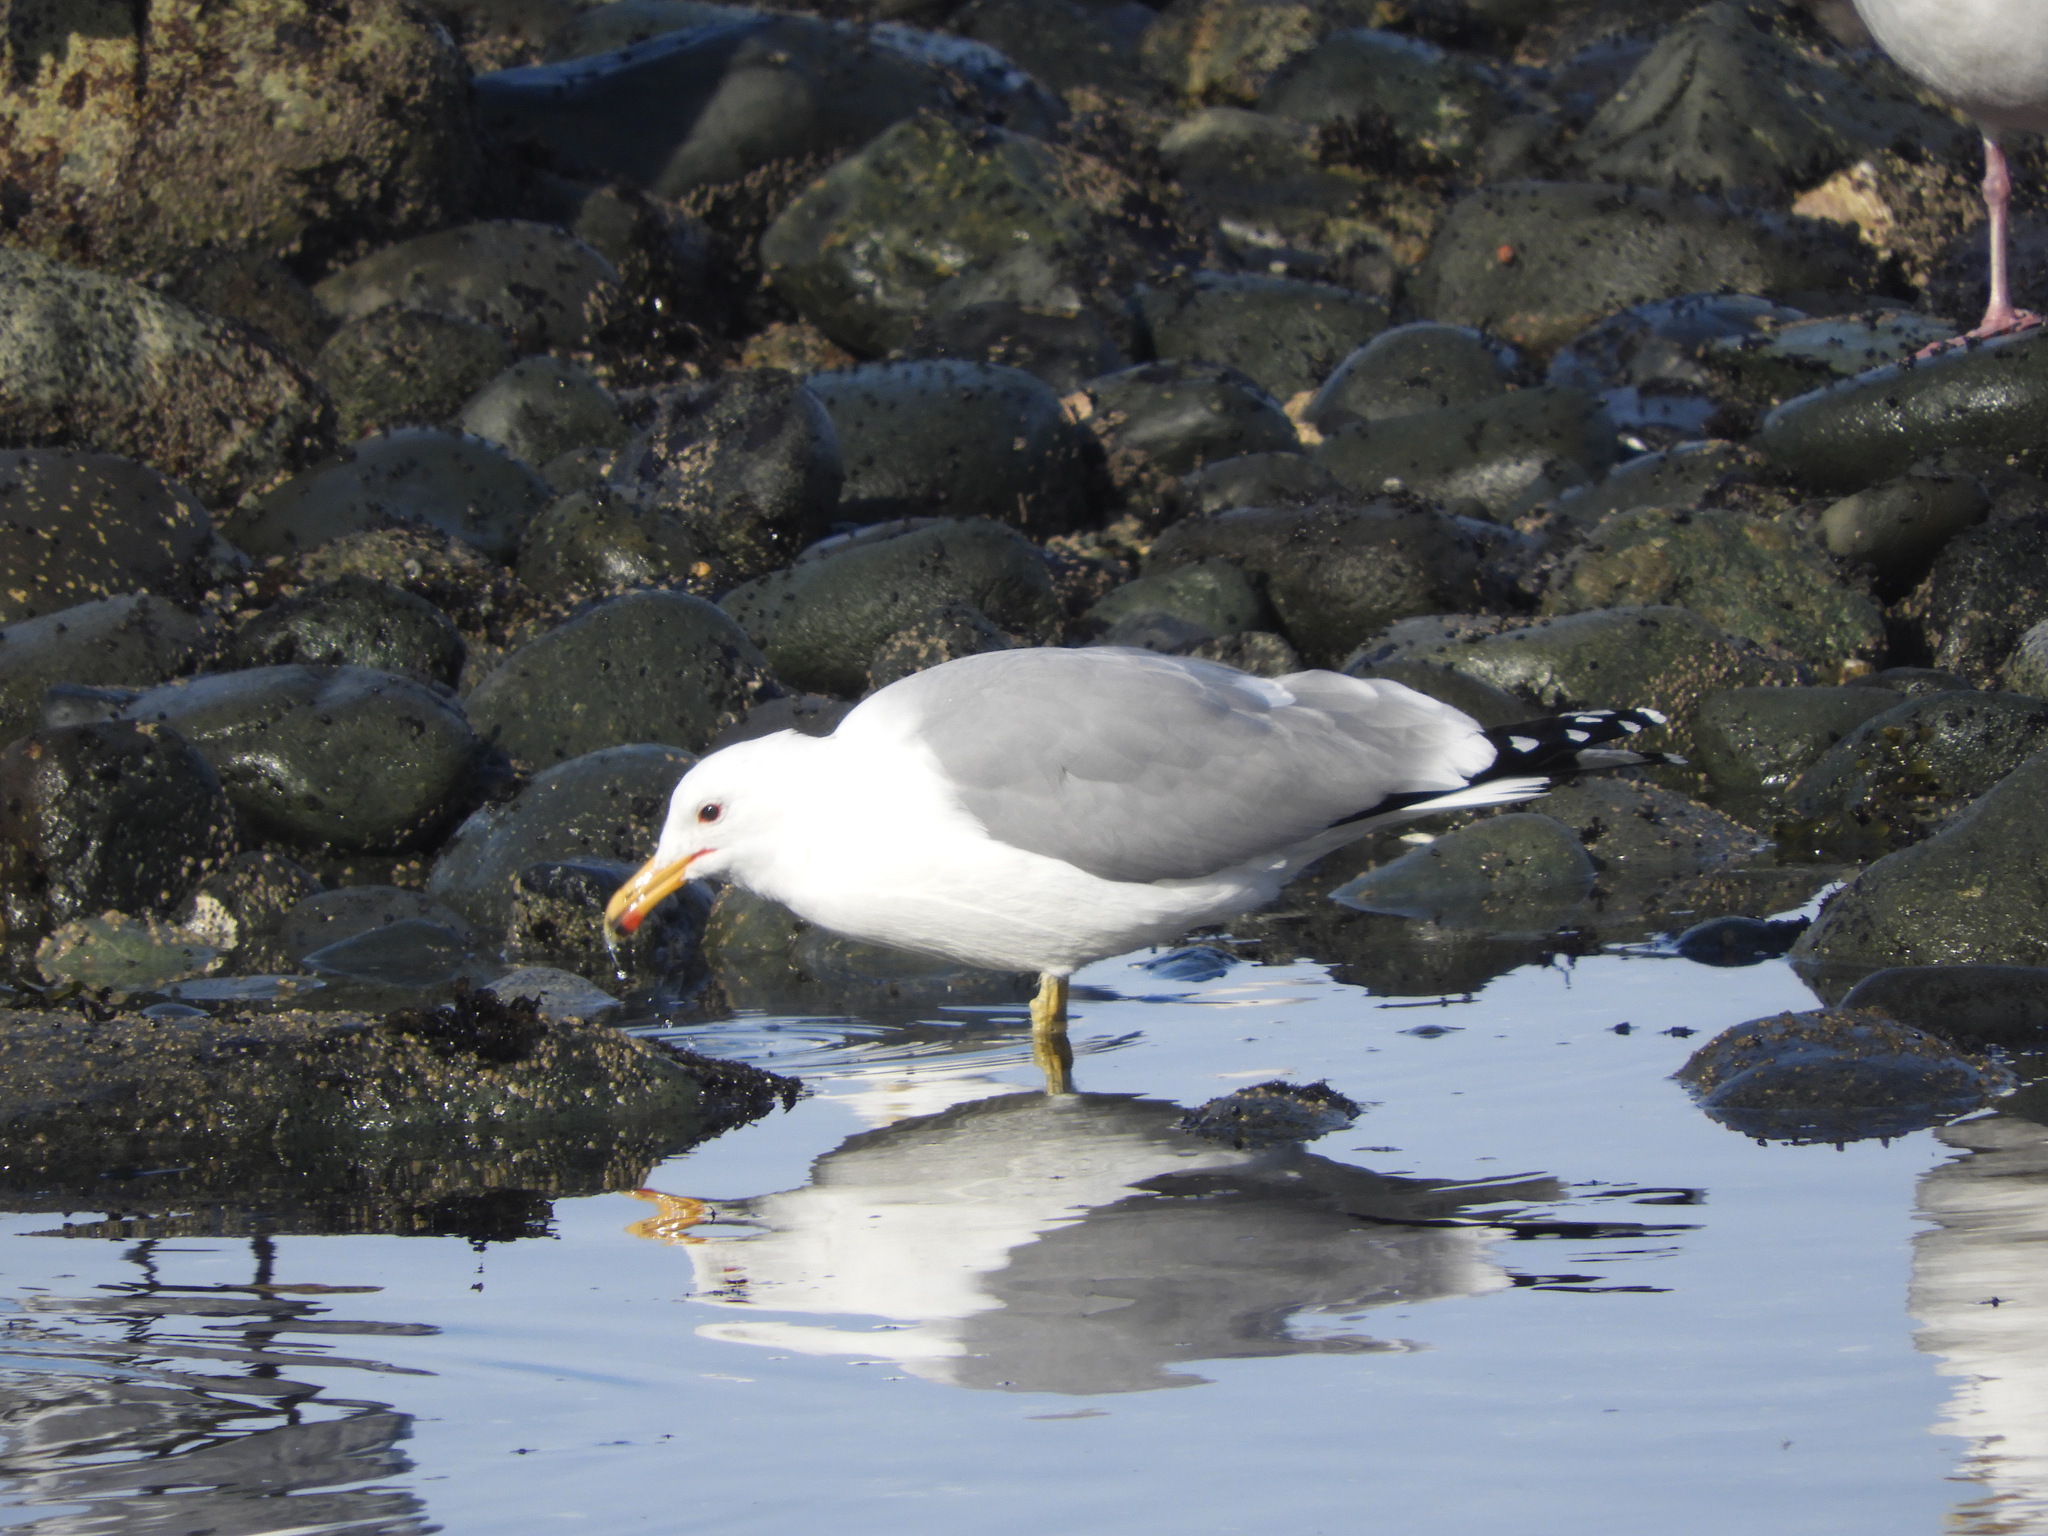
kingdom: Animalia
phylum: Chordata
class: Aves
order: Charadriiformes
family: Laridae
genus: Larus
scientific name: Larus californicus
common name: California gull
